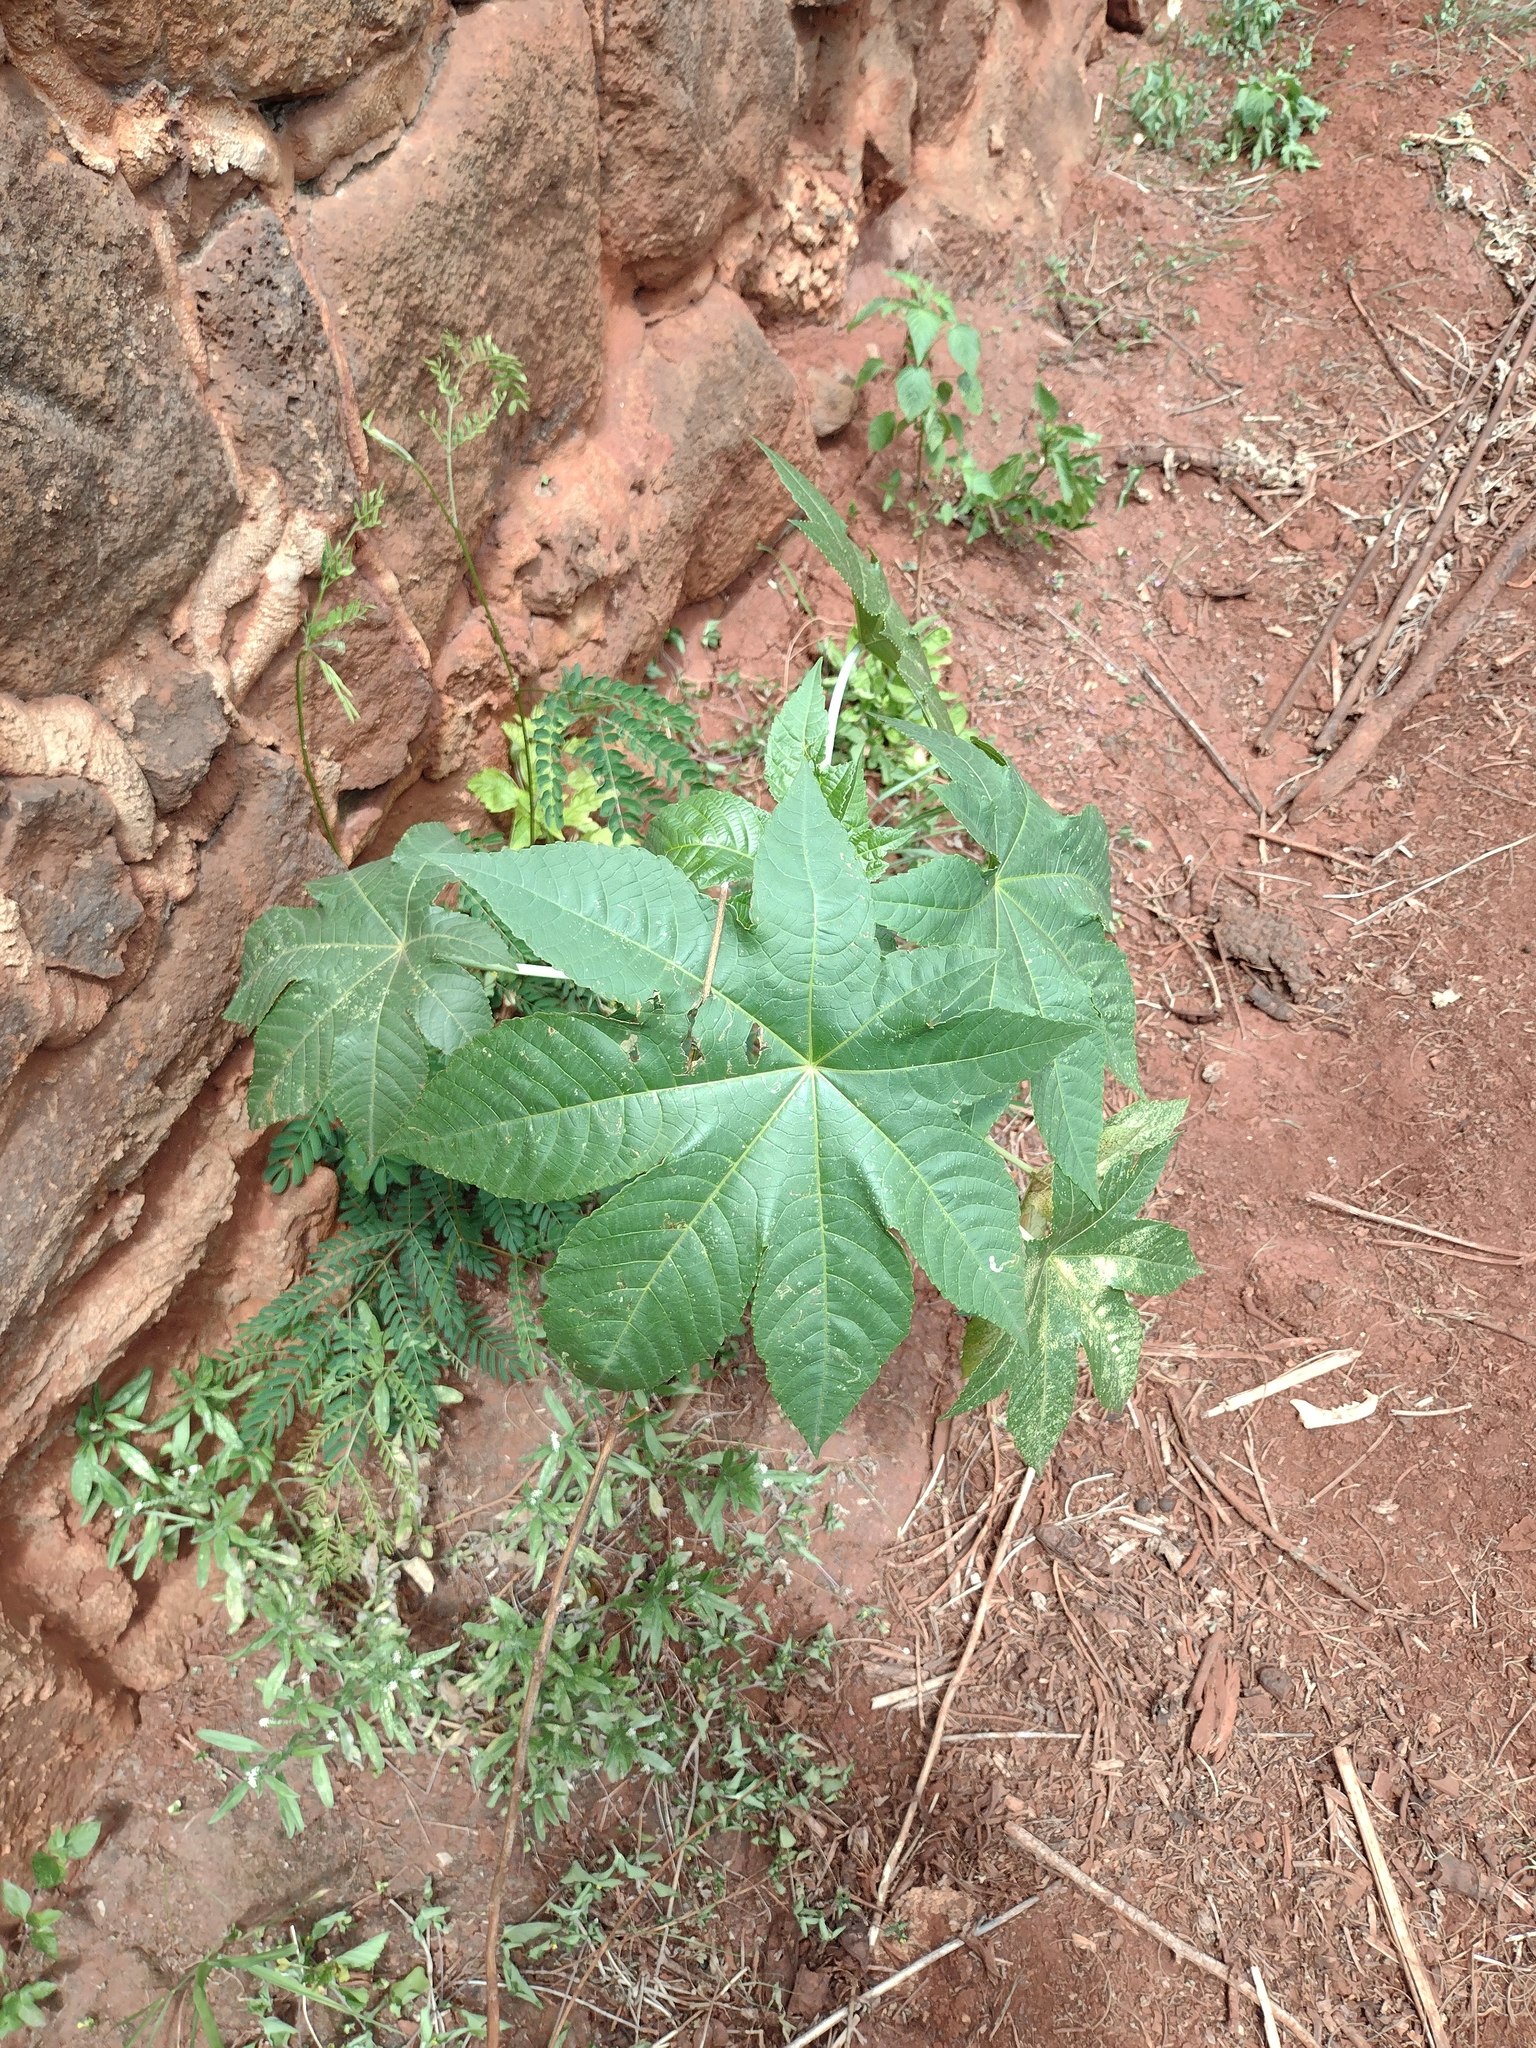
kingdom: Plantae
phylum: Tracheophyta
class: Magnoliopsida
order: Malpighiales
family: Euphorbiaceae
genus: Ricinus
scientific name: Ricinus communis
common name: Castor-oil-plant
